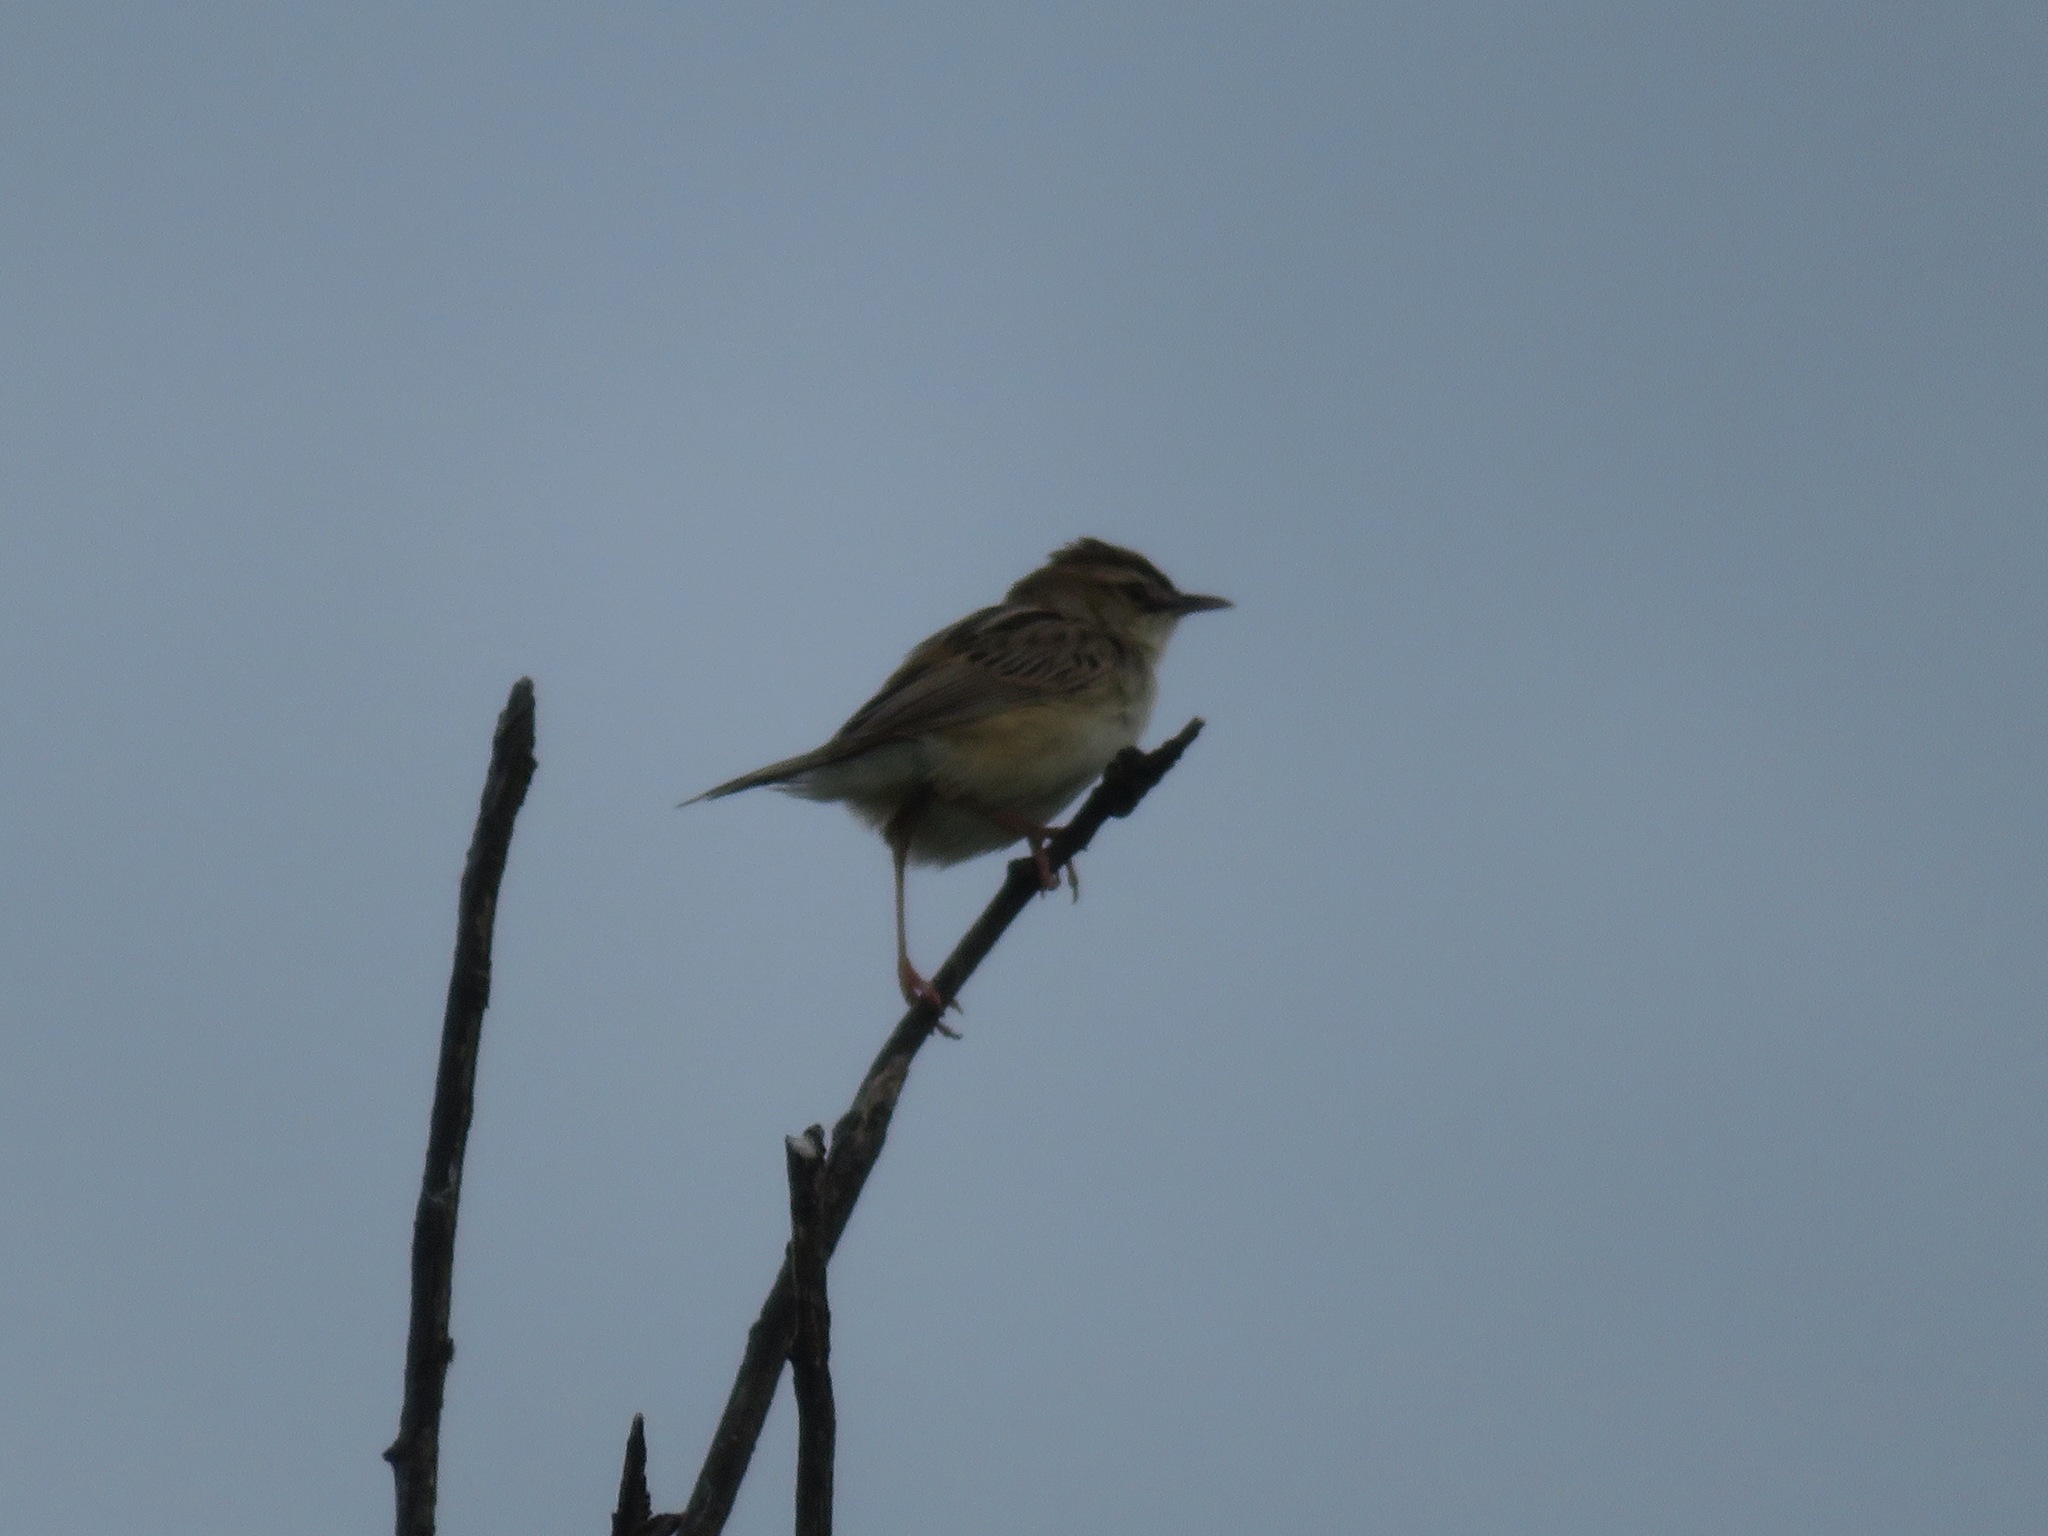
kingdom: Animalia
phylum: Chordata
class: Aves
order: Passeriformes
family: Cisticolidae
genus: Cisticola
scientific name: Cisticola juncidis
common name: Zitting cisticola
